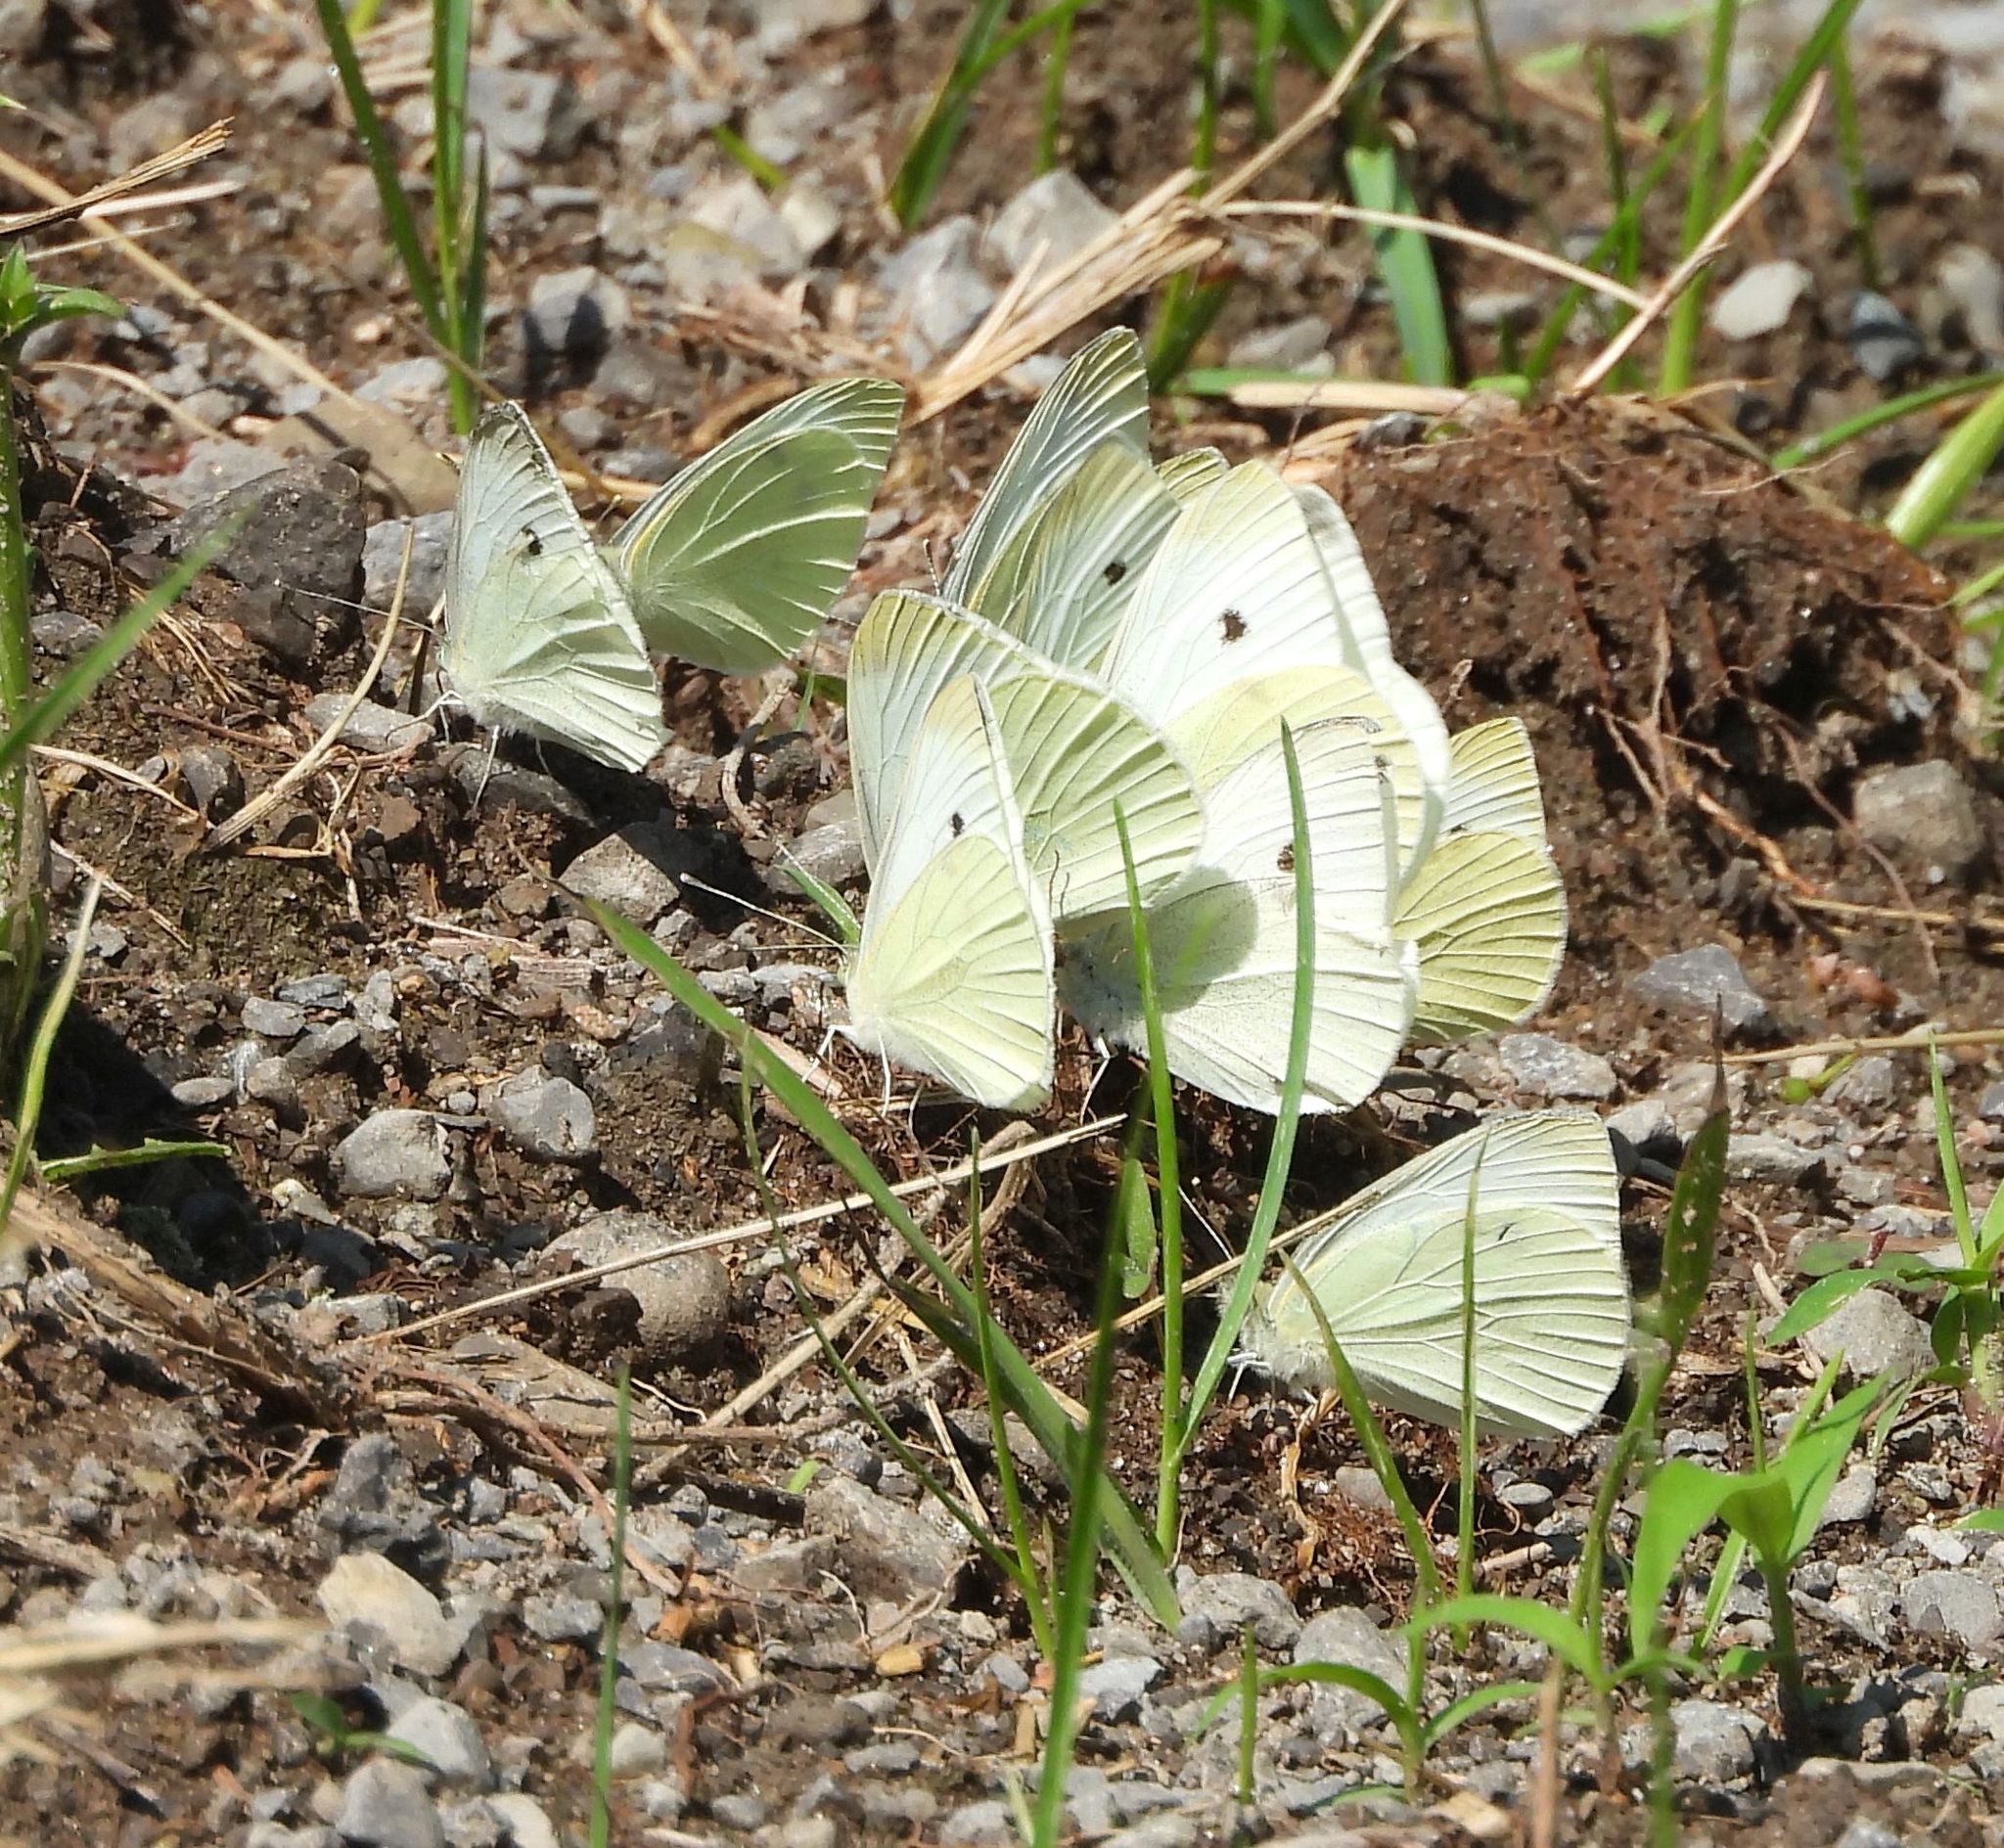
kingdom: Animalia
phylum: Arthropoda
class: Insecta
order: Lepidoptera
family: Pieridae
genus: Pieris
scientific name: Pieris rapae
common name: Small white
